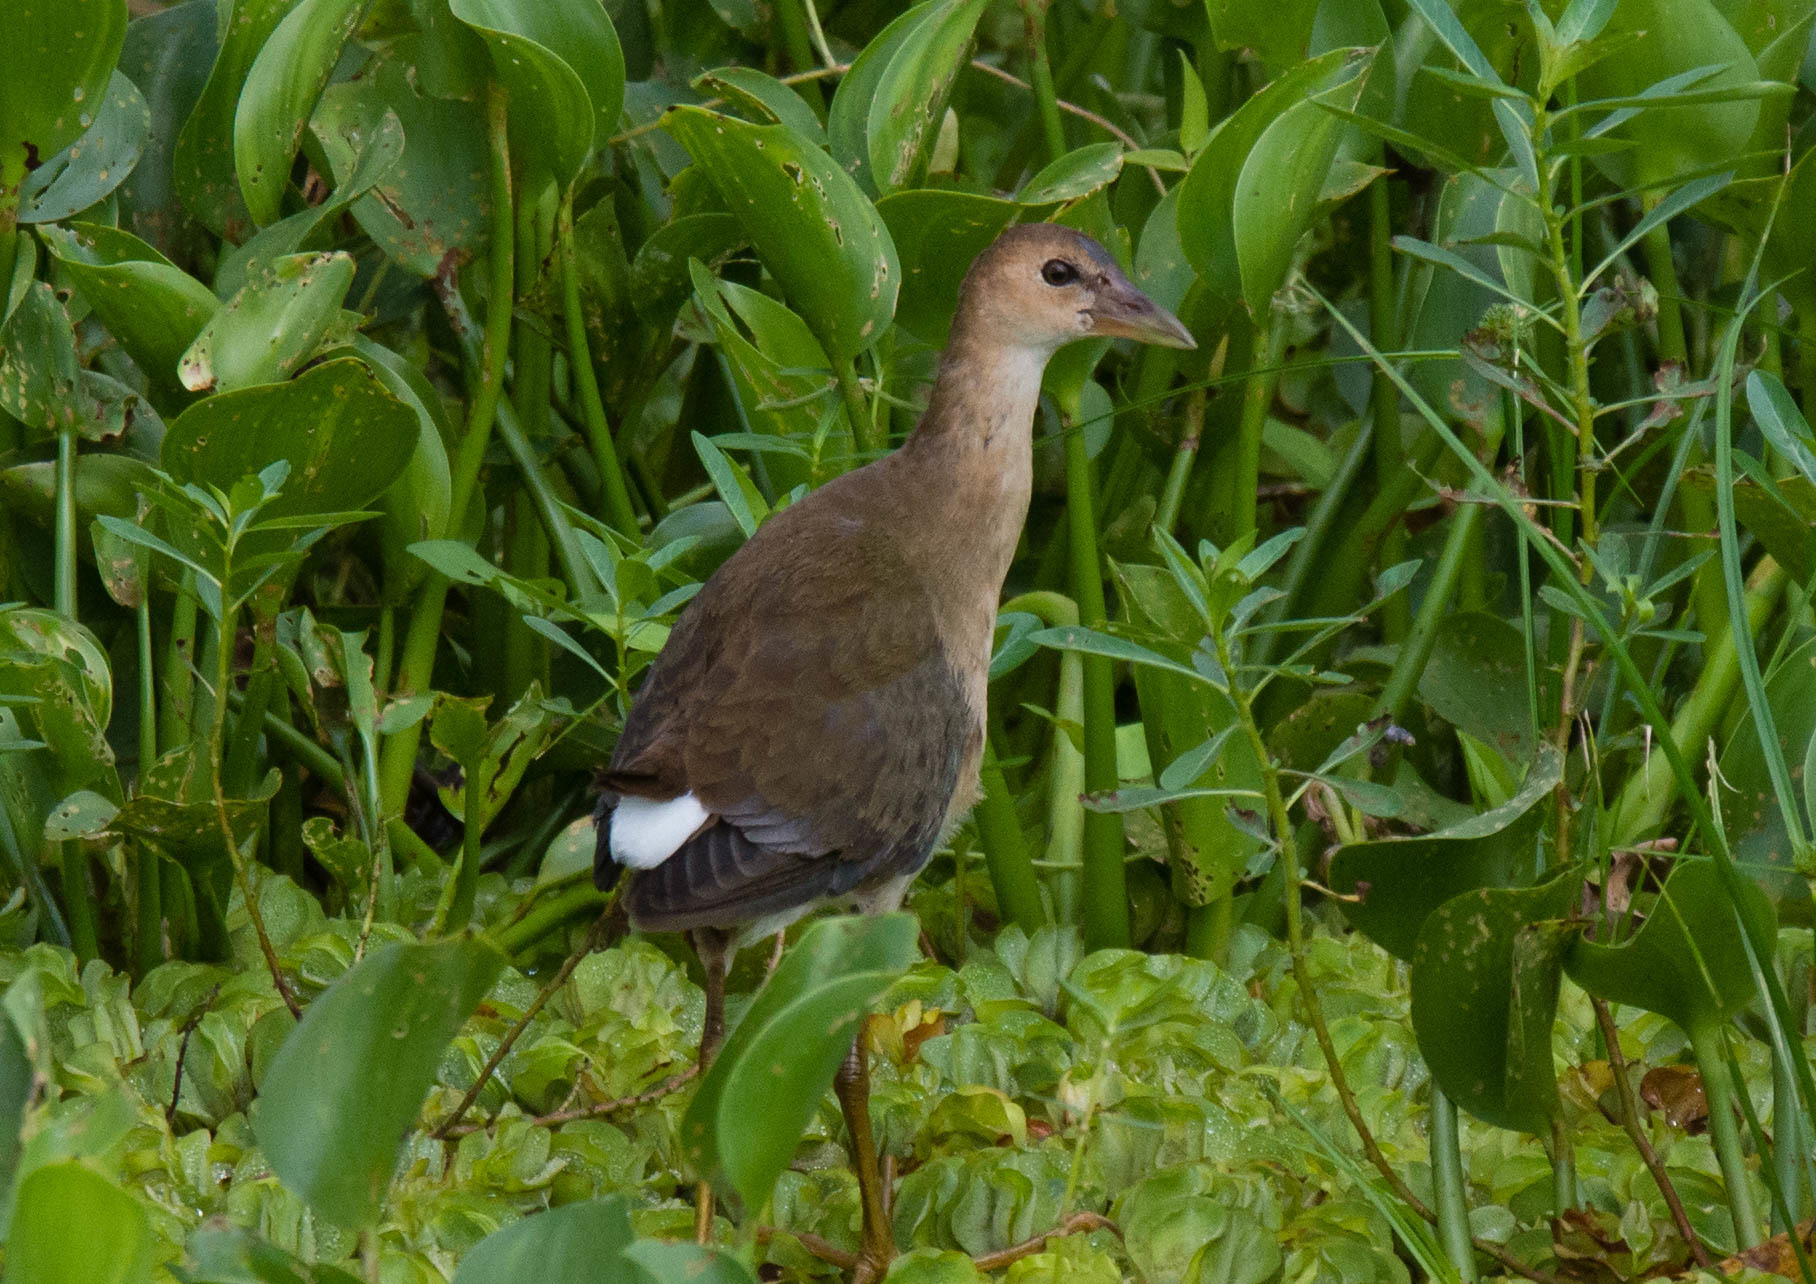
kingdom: Animalia
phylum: Chordata
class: Aves
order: Gruiformes
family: Rallidae
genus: Porphyrio
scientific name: Porphyrio martinica
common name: Purple gallinule
